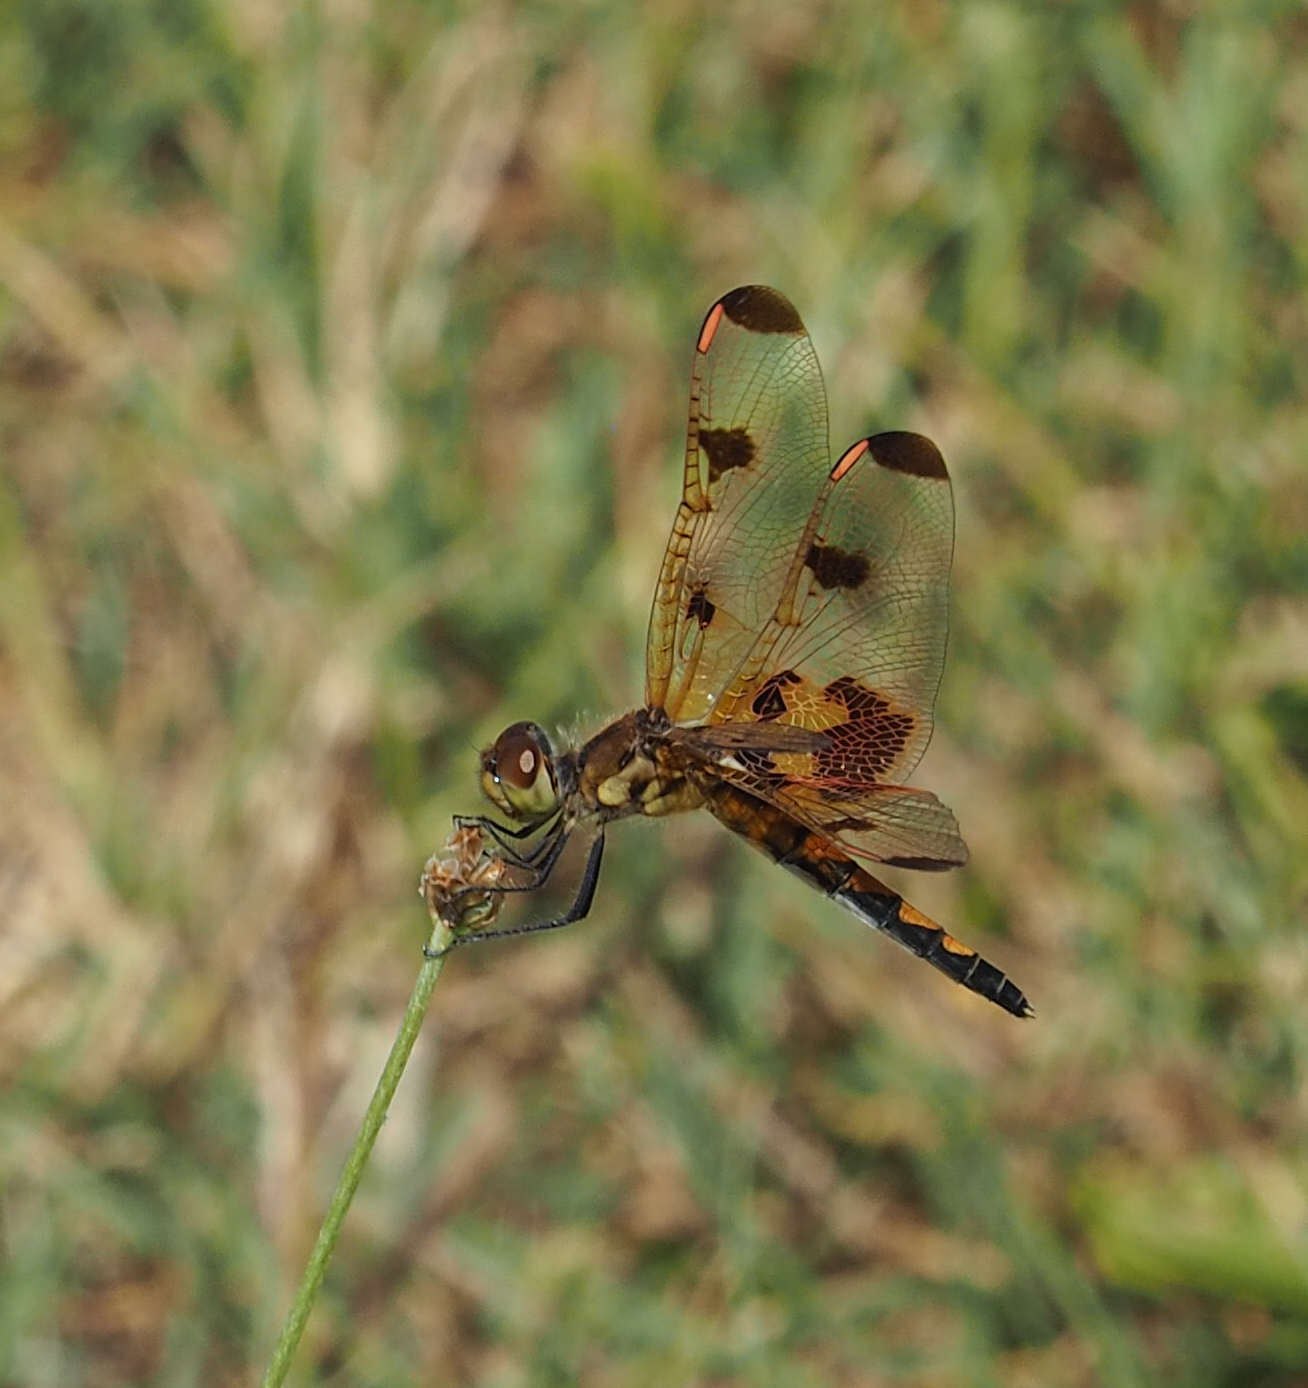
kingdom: Animalia
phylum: Arthropoda
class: Insecta
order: Odonata
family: Libellulidae
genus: Celithemis
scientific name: Celithemis elisa
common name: Calico pennant
